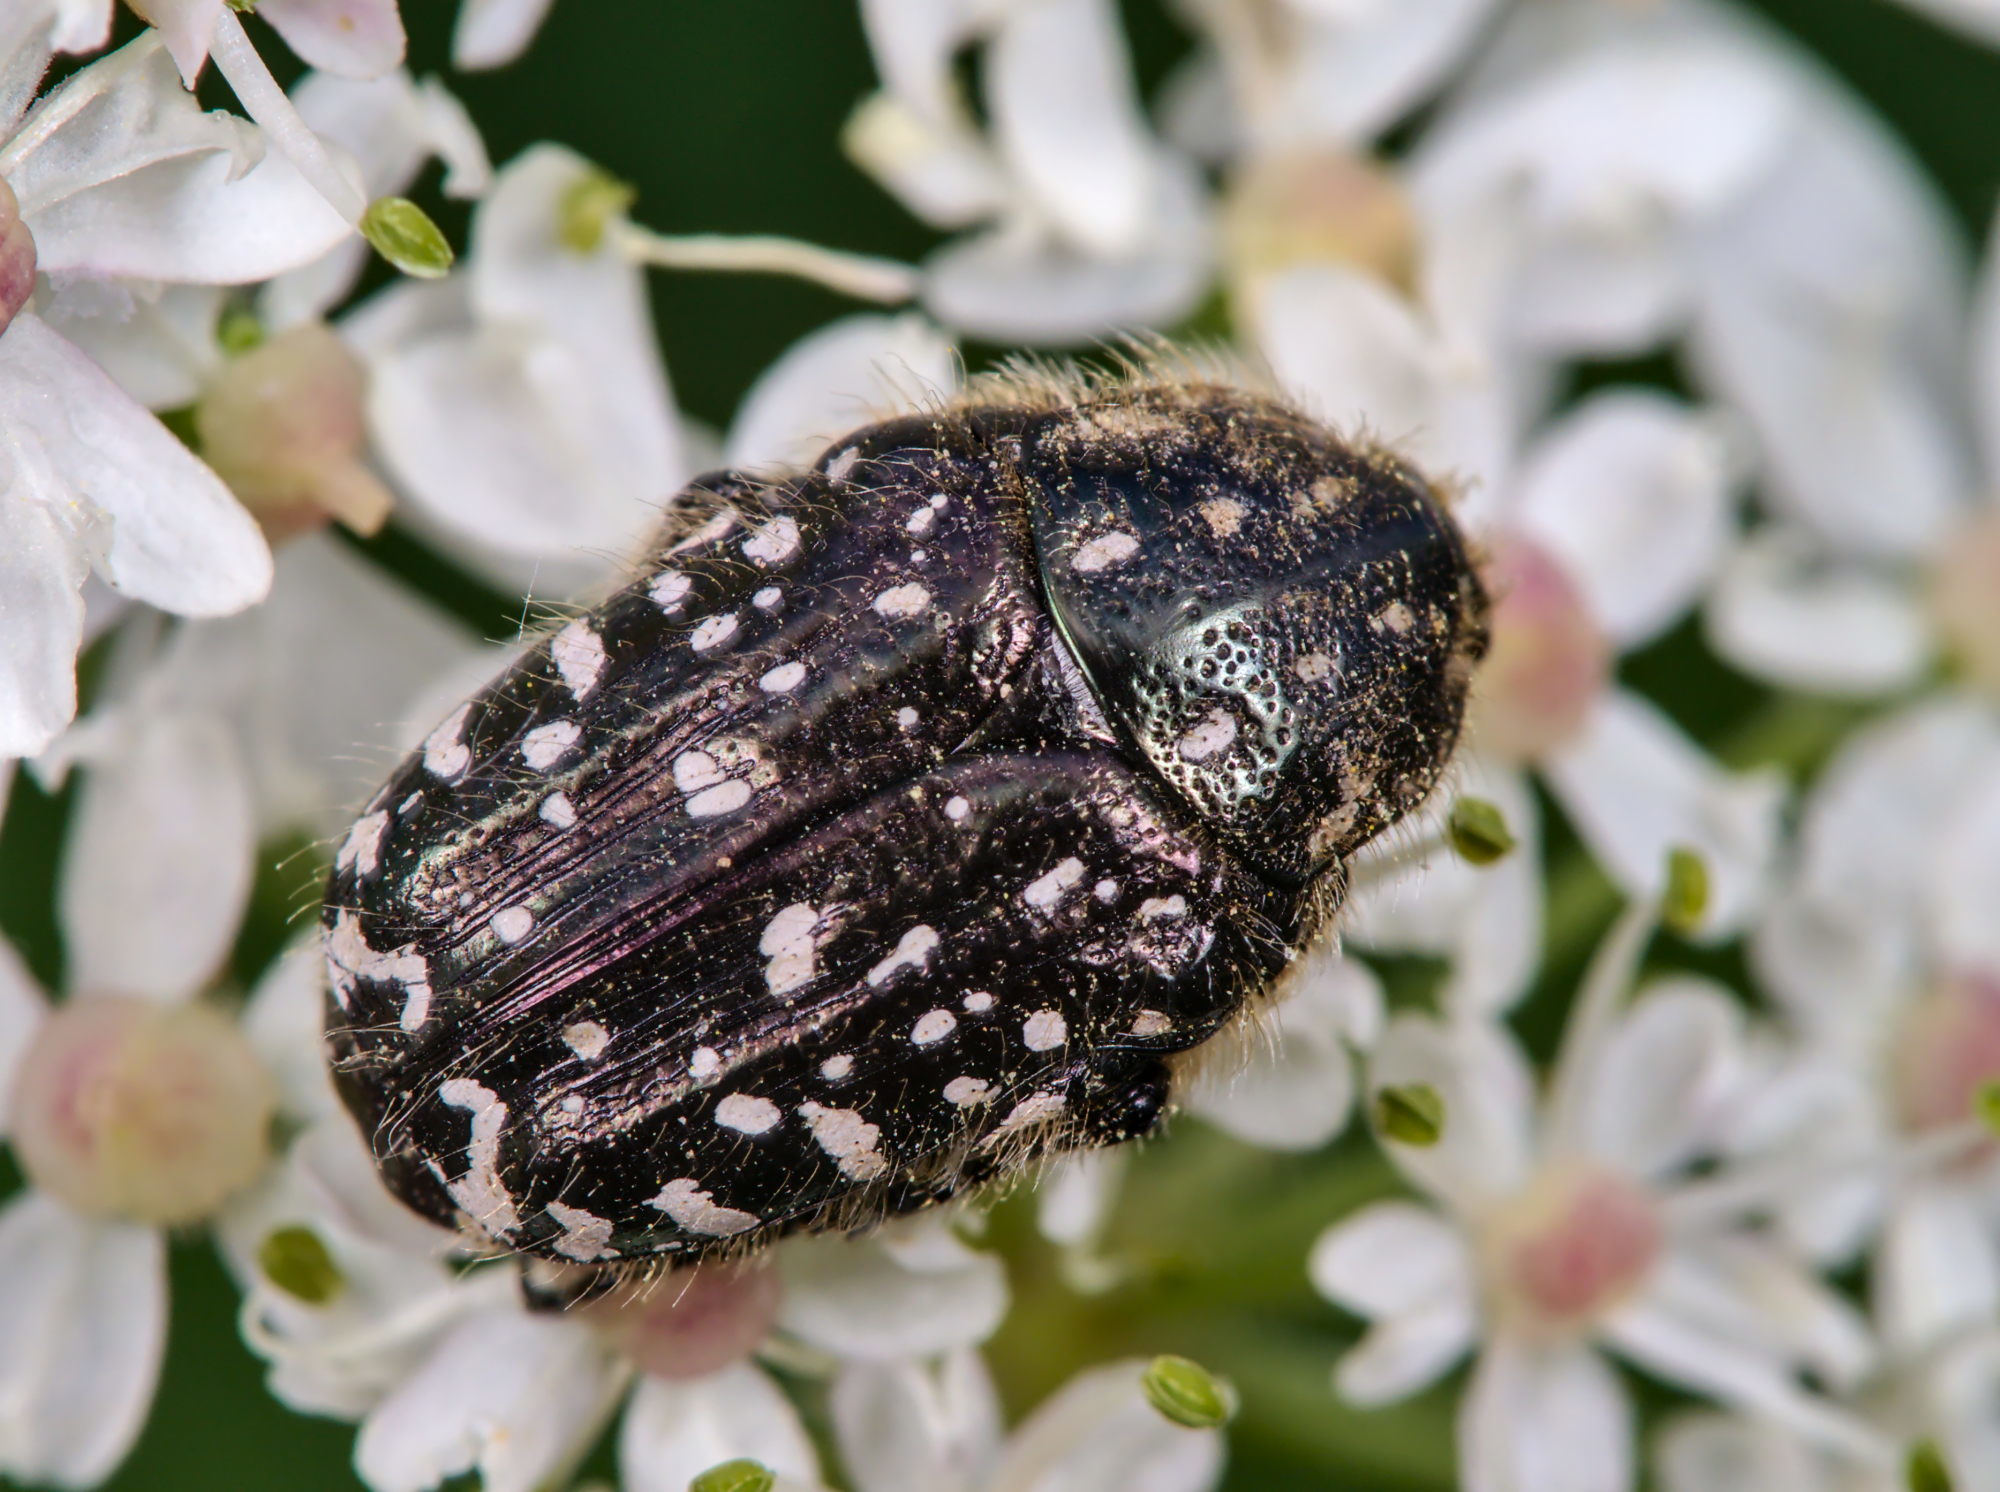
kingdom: Animalia
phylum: Arthropoda
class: Insecta
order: Coleoptera
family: Scarabaeidae
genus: Oxythyrea
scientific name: Oxythyrea funesta
